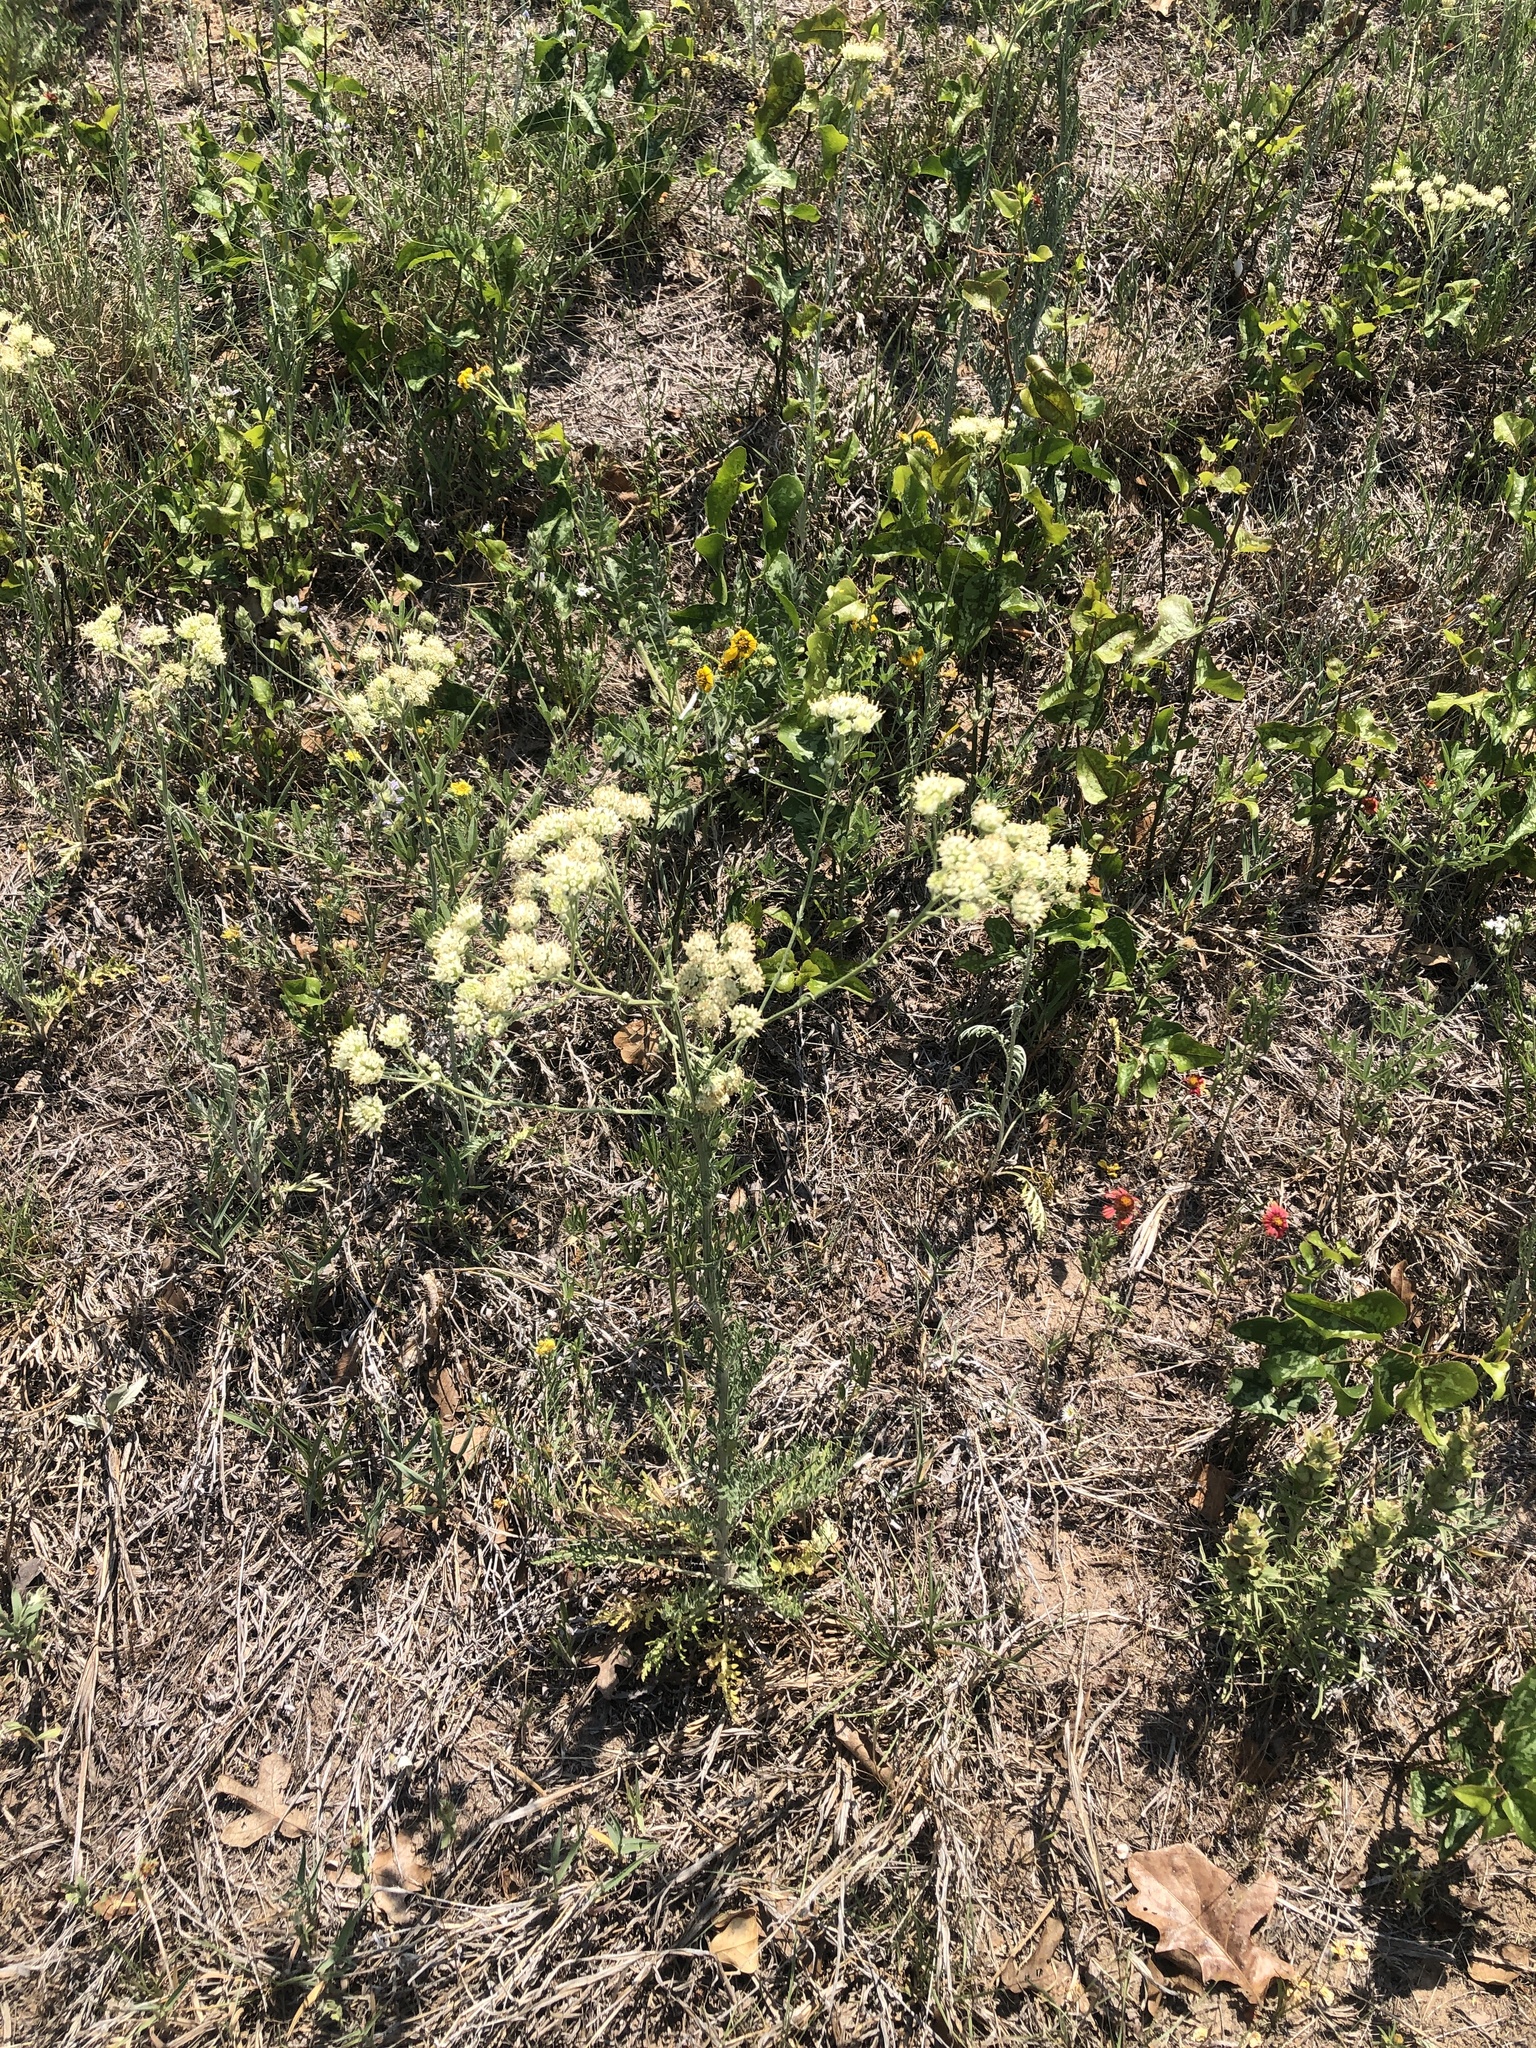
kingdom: Plantae
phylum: Tracheophyta
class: Magnoliopsida
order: Asterales
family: Asteraceae
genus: Hymenopappus
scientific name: Hymenopappus scabiosaeus
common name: Carolina woollywhite
